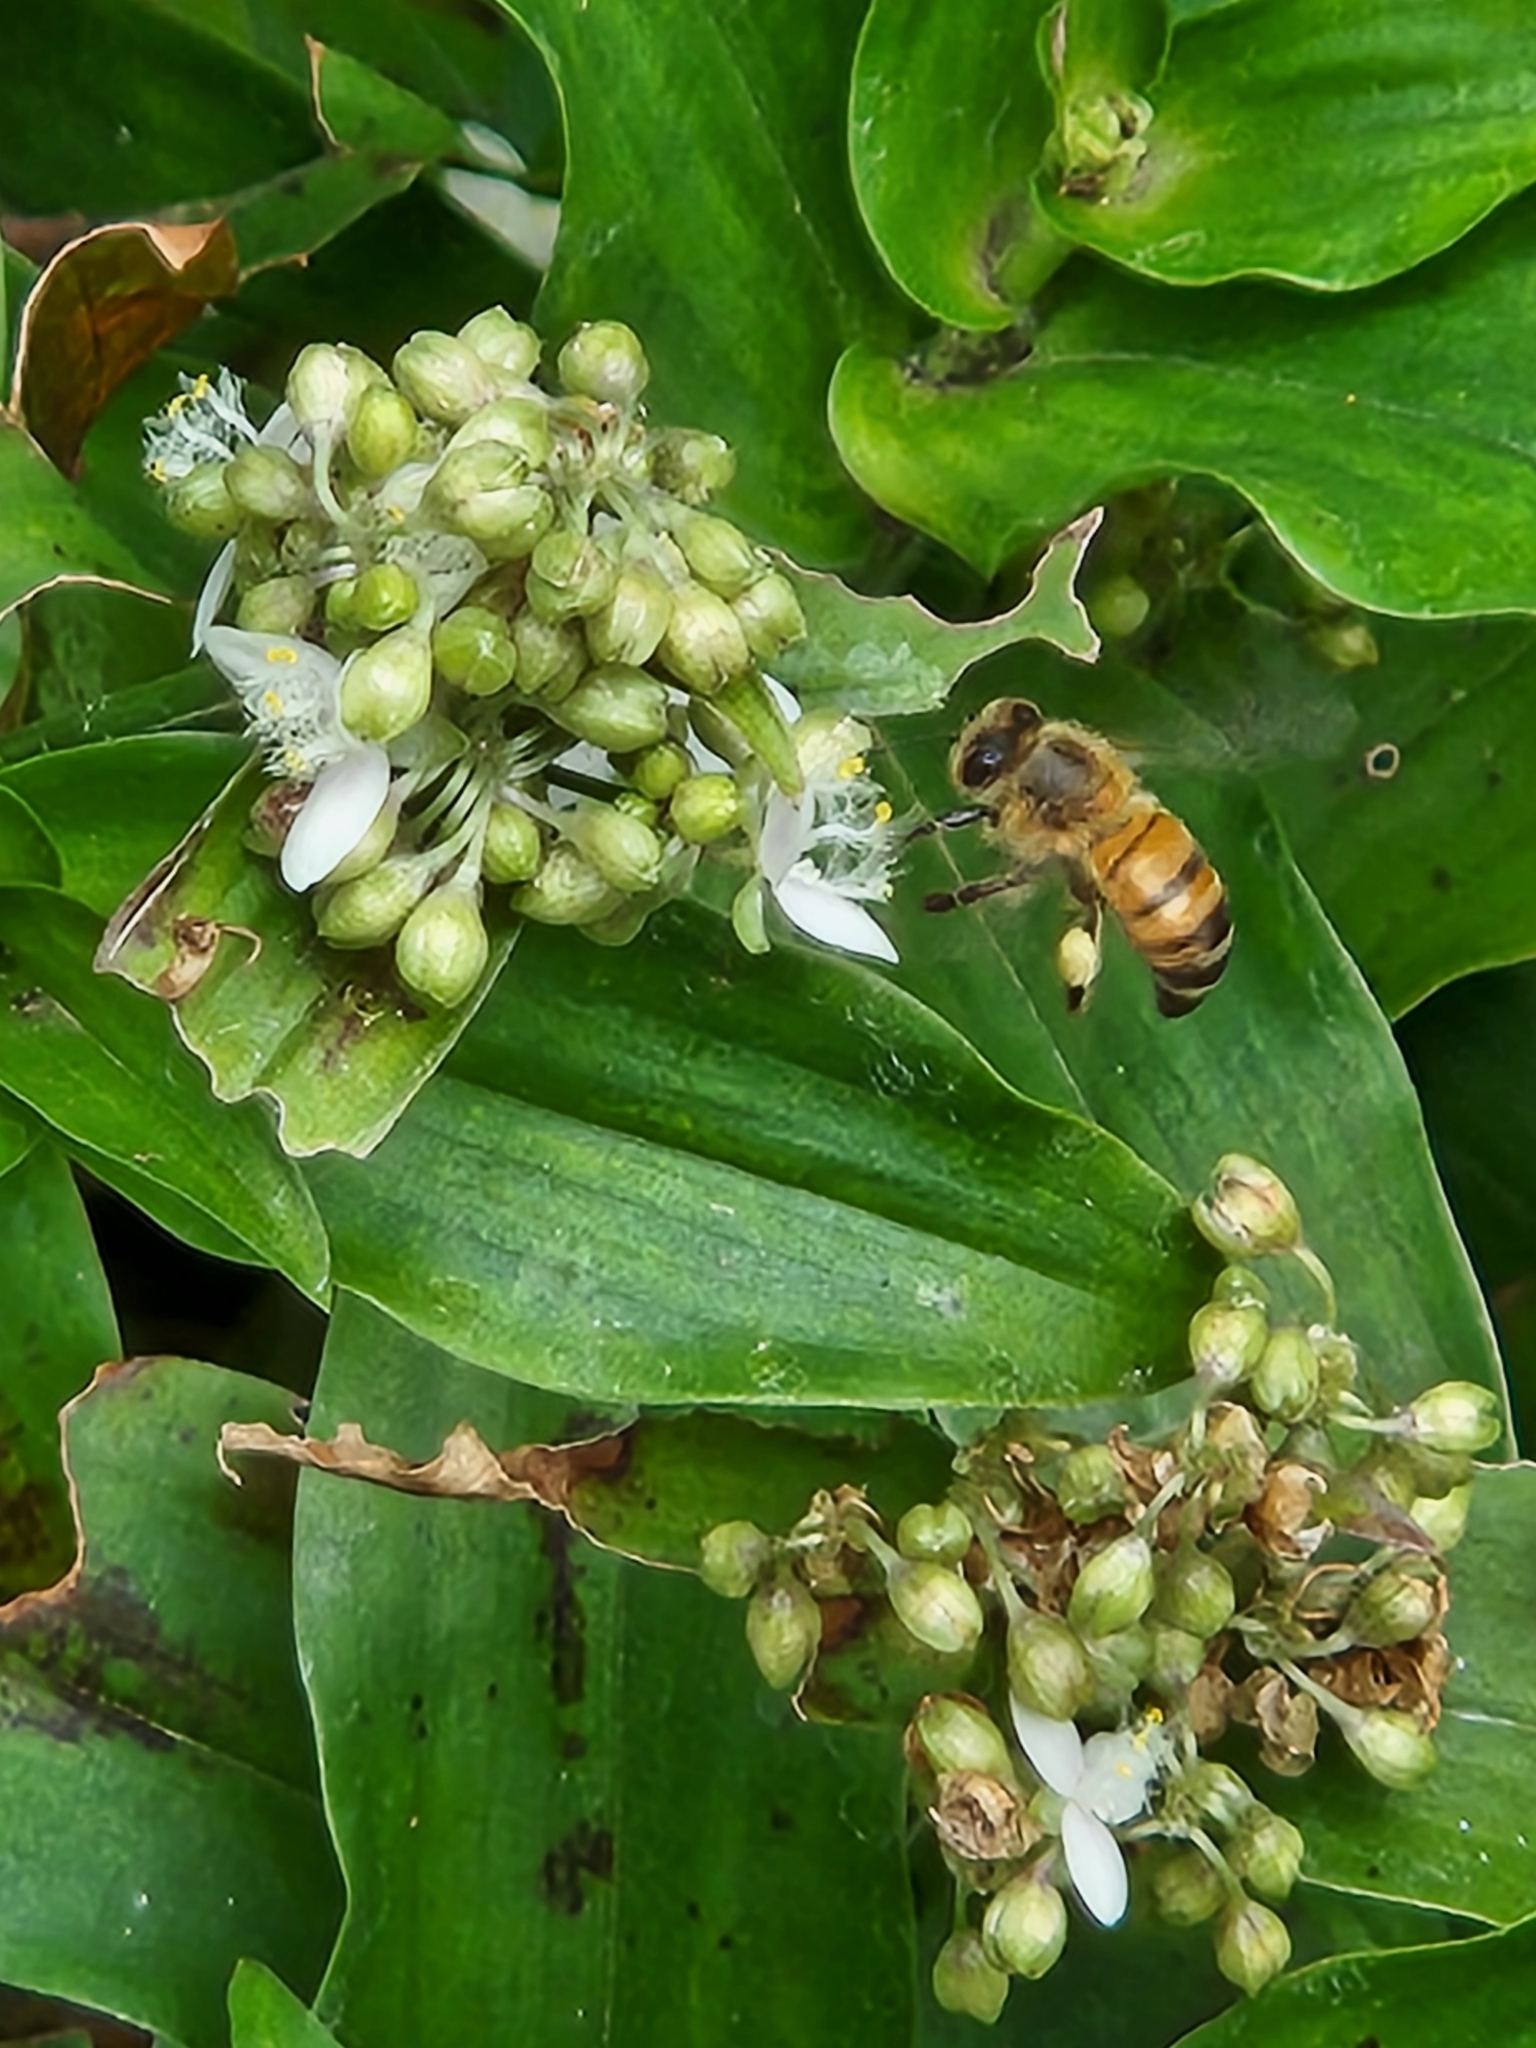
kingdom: Animalia
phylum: Arthropoda
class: Insecta
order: Hymenoptera
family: Apidae
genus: Apis
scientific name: Apis mellifera
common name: Honey bee
